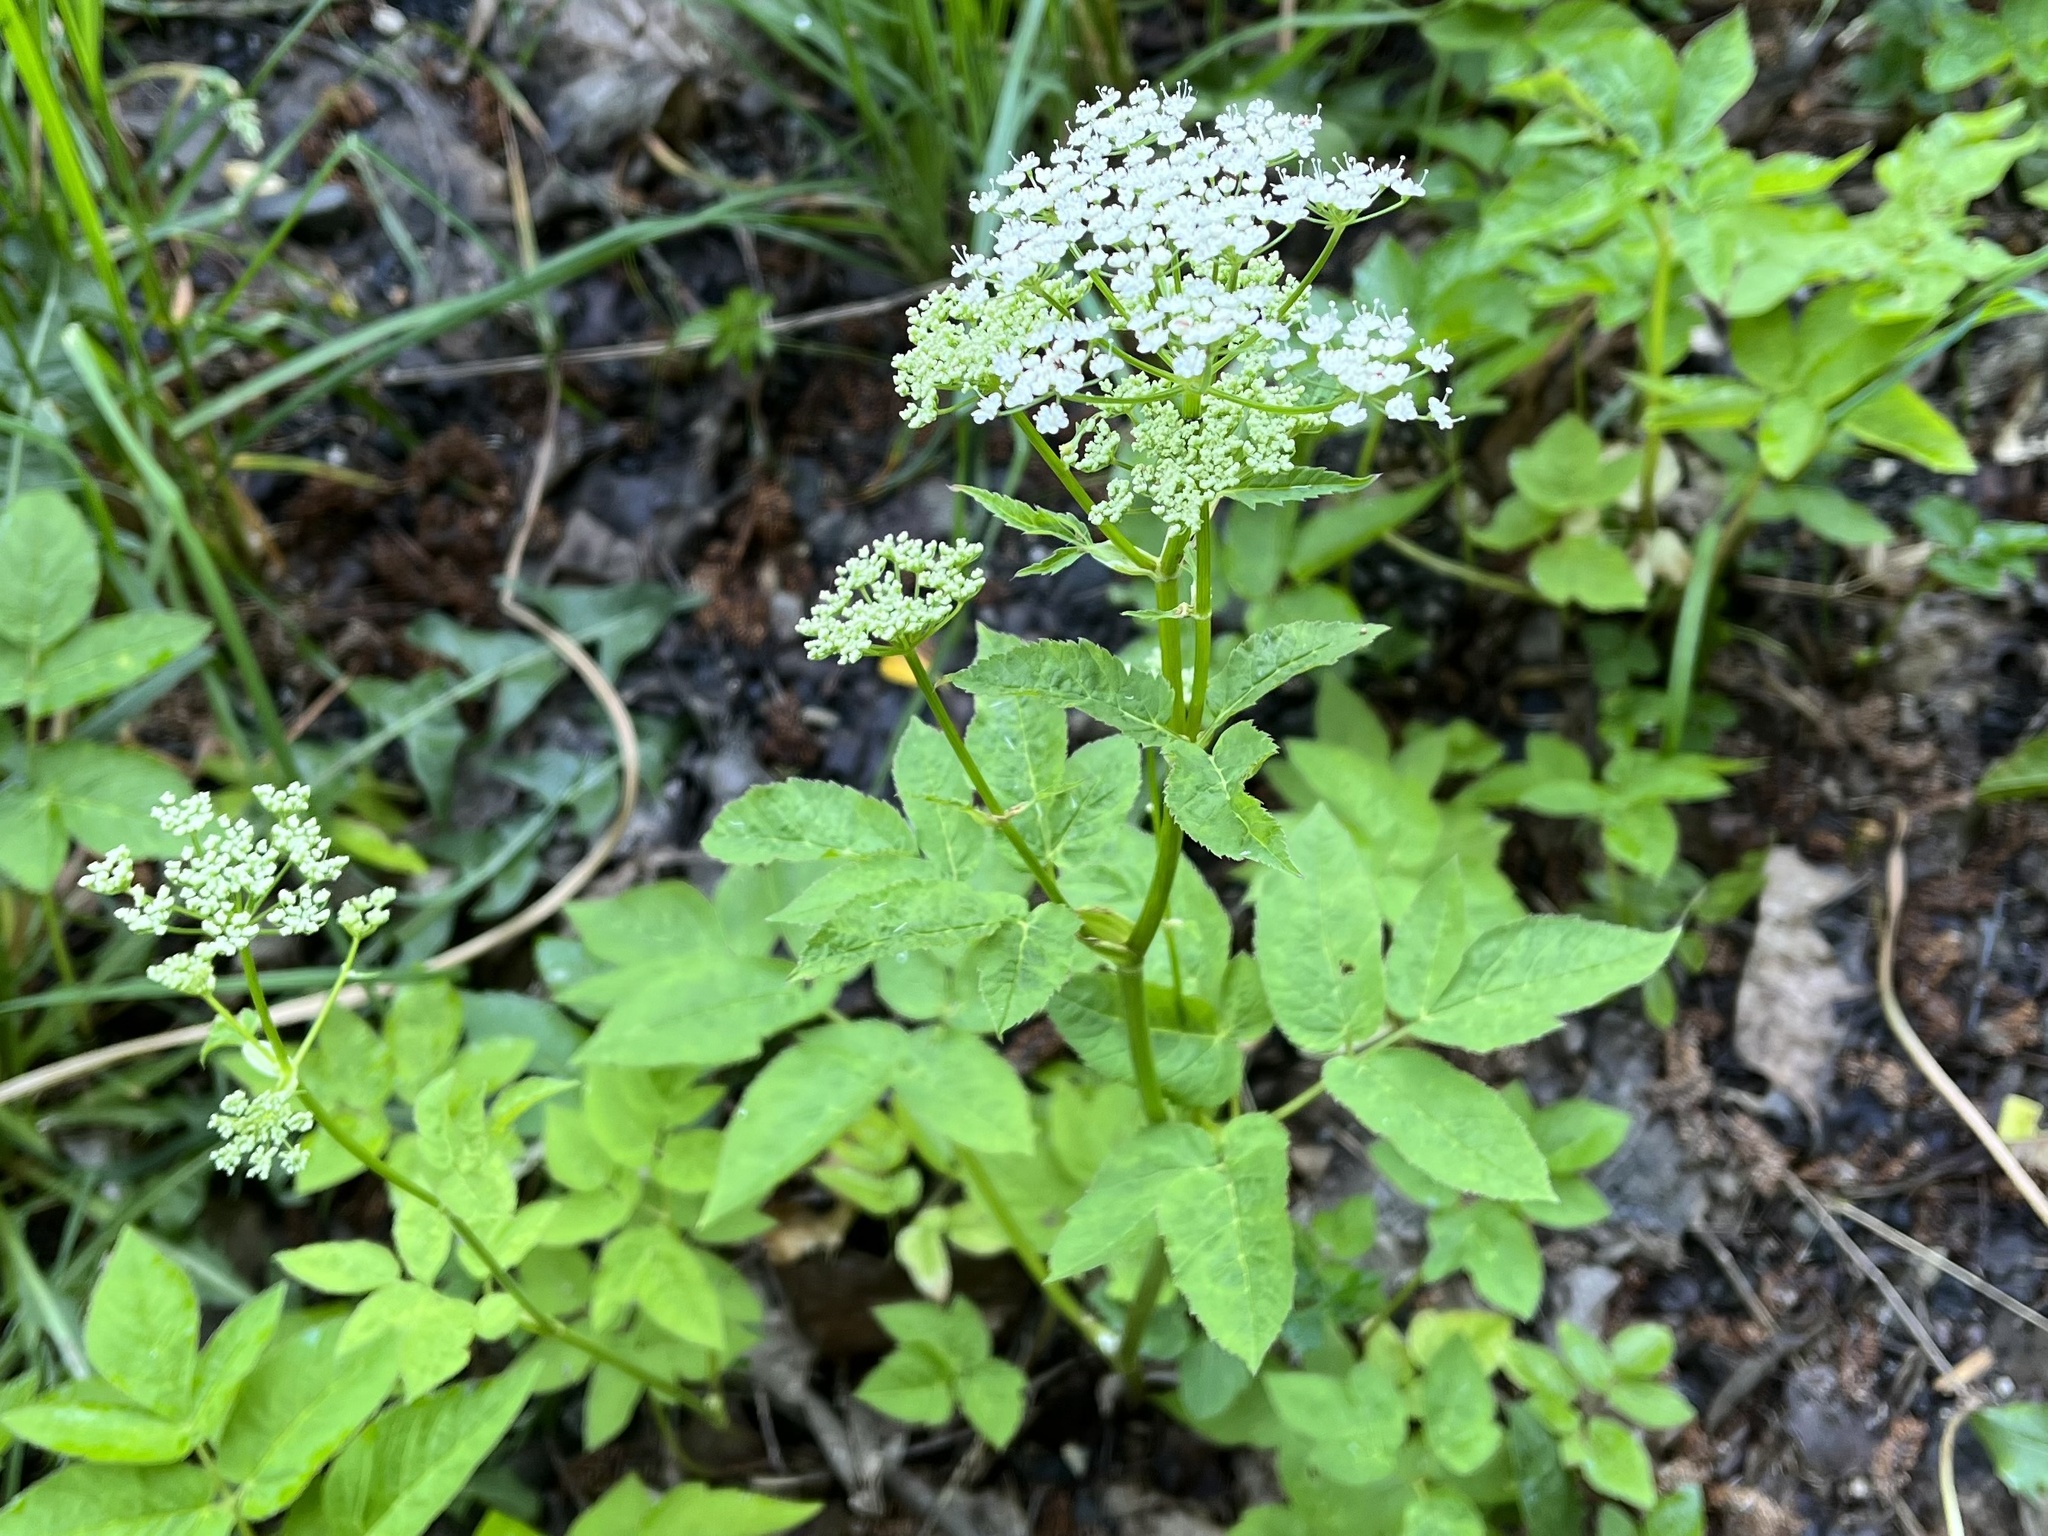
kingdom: Plantae
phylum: Tracheophyta
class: Magnoliopsida
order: Apiales
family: Apiaceae
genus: Aegopodium
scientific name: Aegopodium podagraria
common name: Ground-elder
